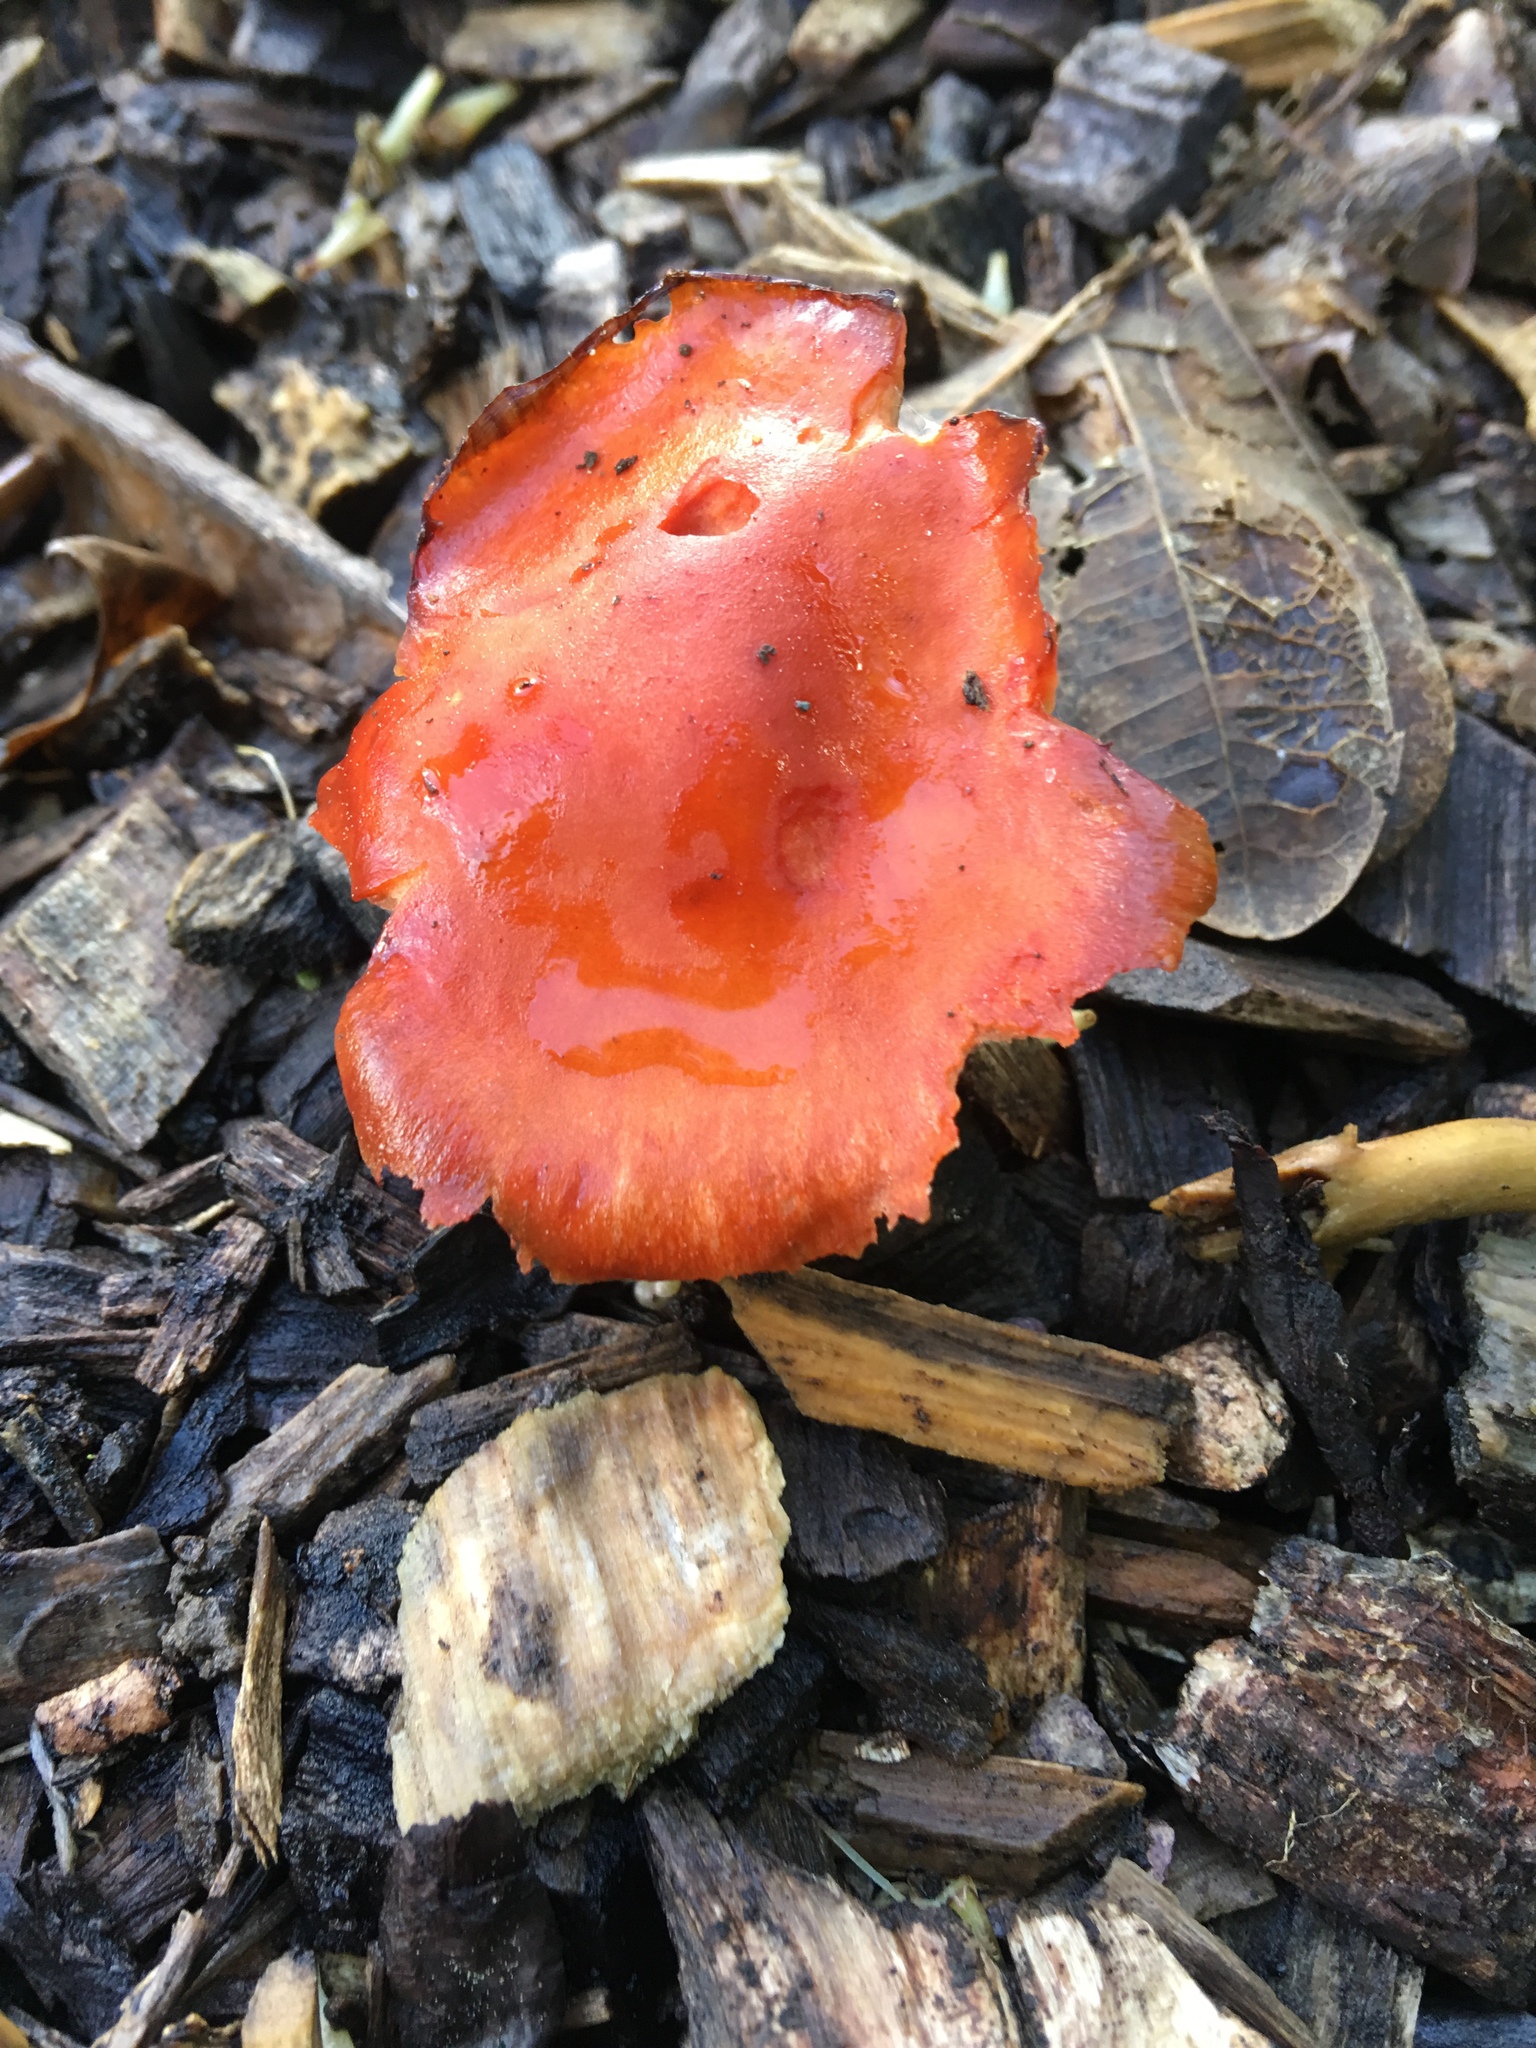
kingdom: Fungi
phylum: Basidiomycota
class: Agaricomycetes
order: Agaricales
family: Strophariaceae
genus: Leratiomyces
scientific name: Leratiomyces ceres
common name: Redlead roundhead
